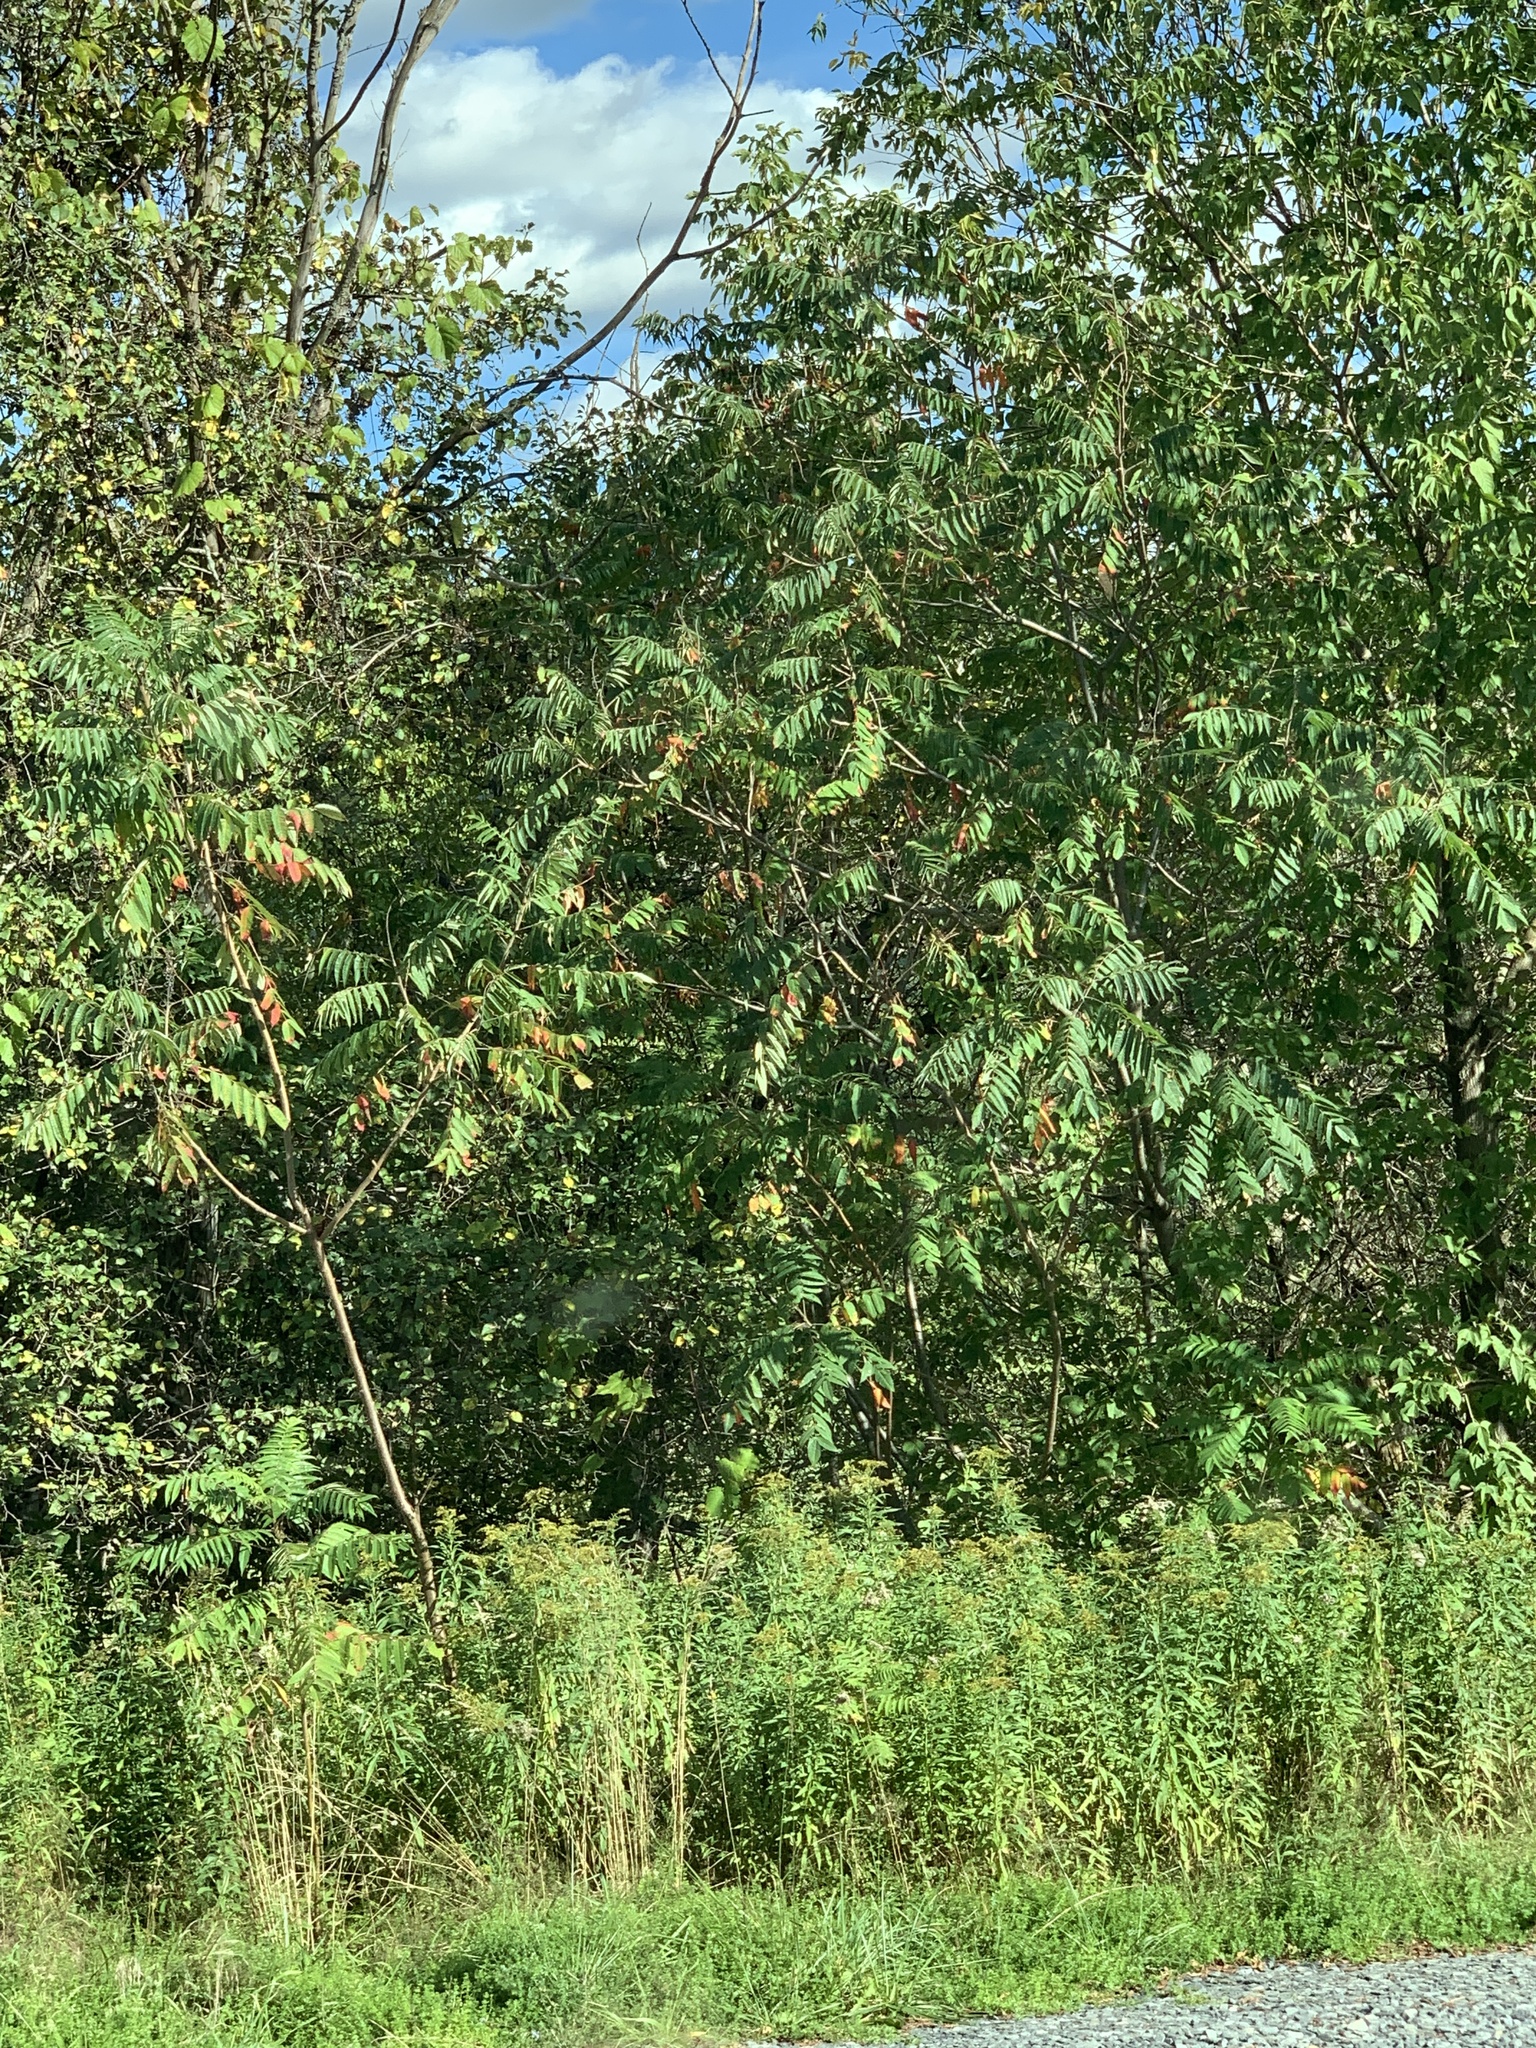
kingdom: Plantae
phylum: Tracheophyta
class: Magnoliopsida
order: Sapindales
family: Anacardiaceae
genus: Rhus
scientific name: Rhus typhina
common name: Staghorn sumac
